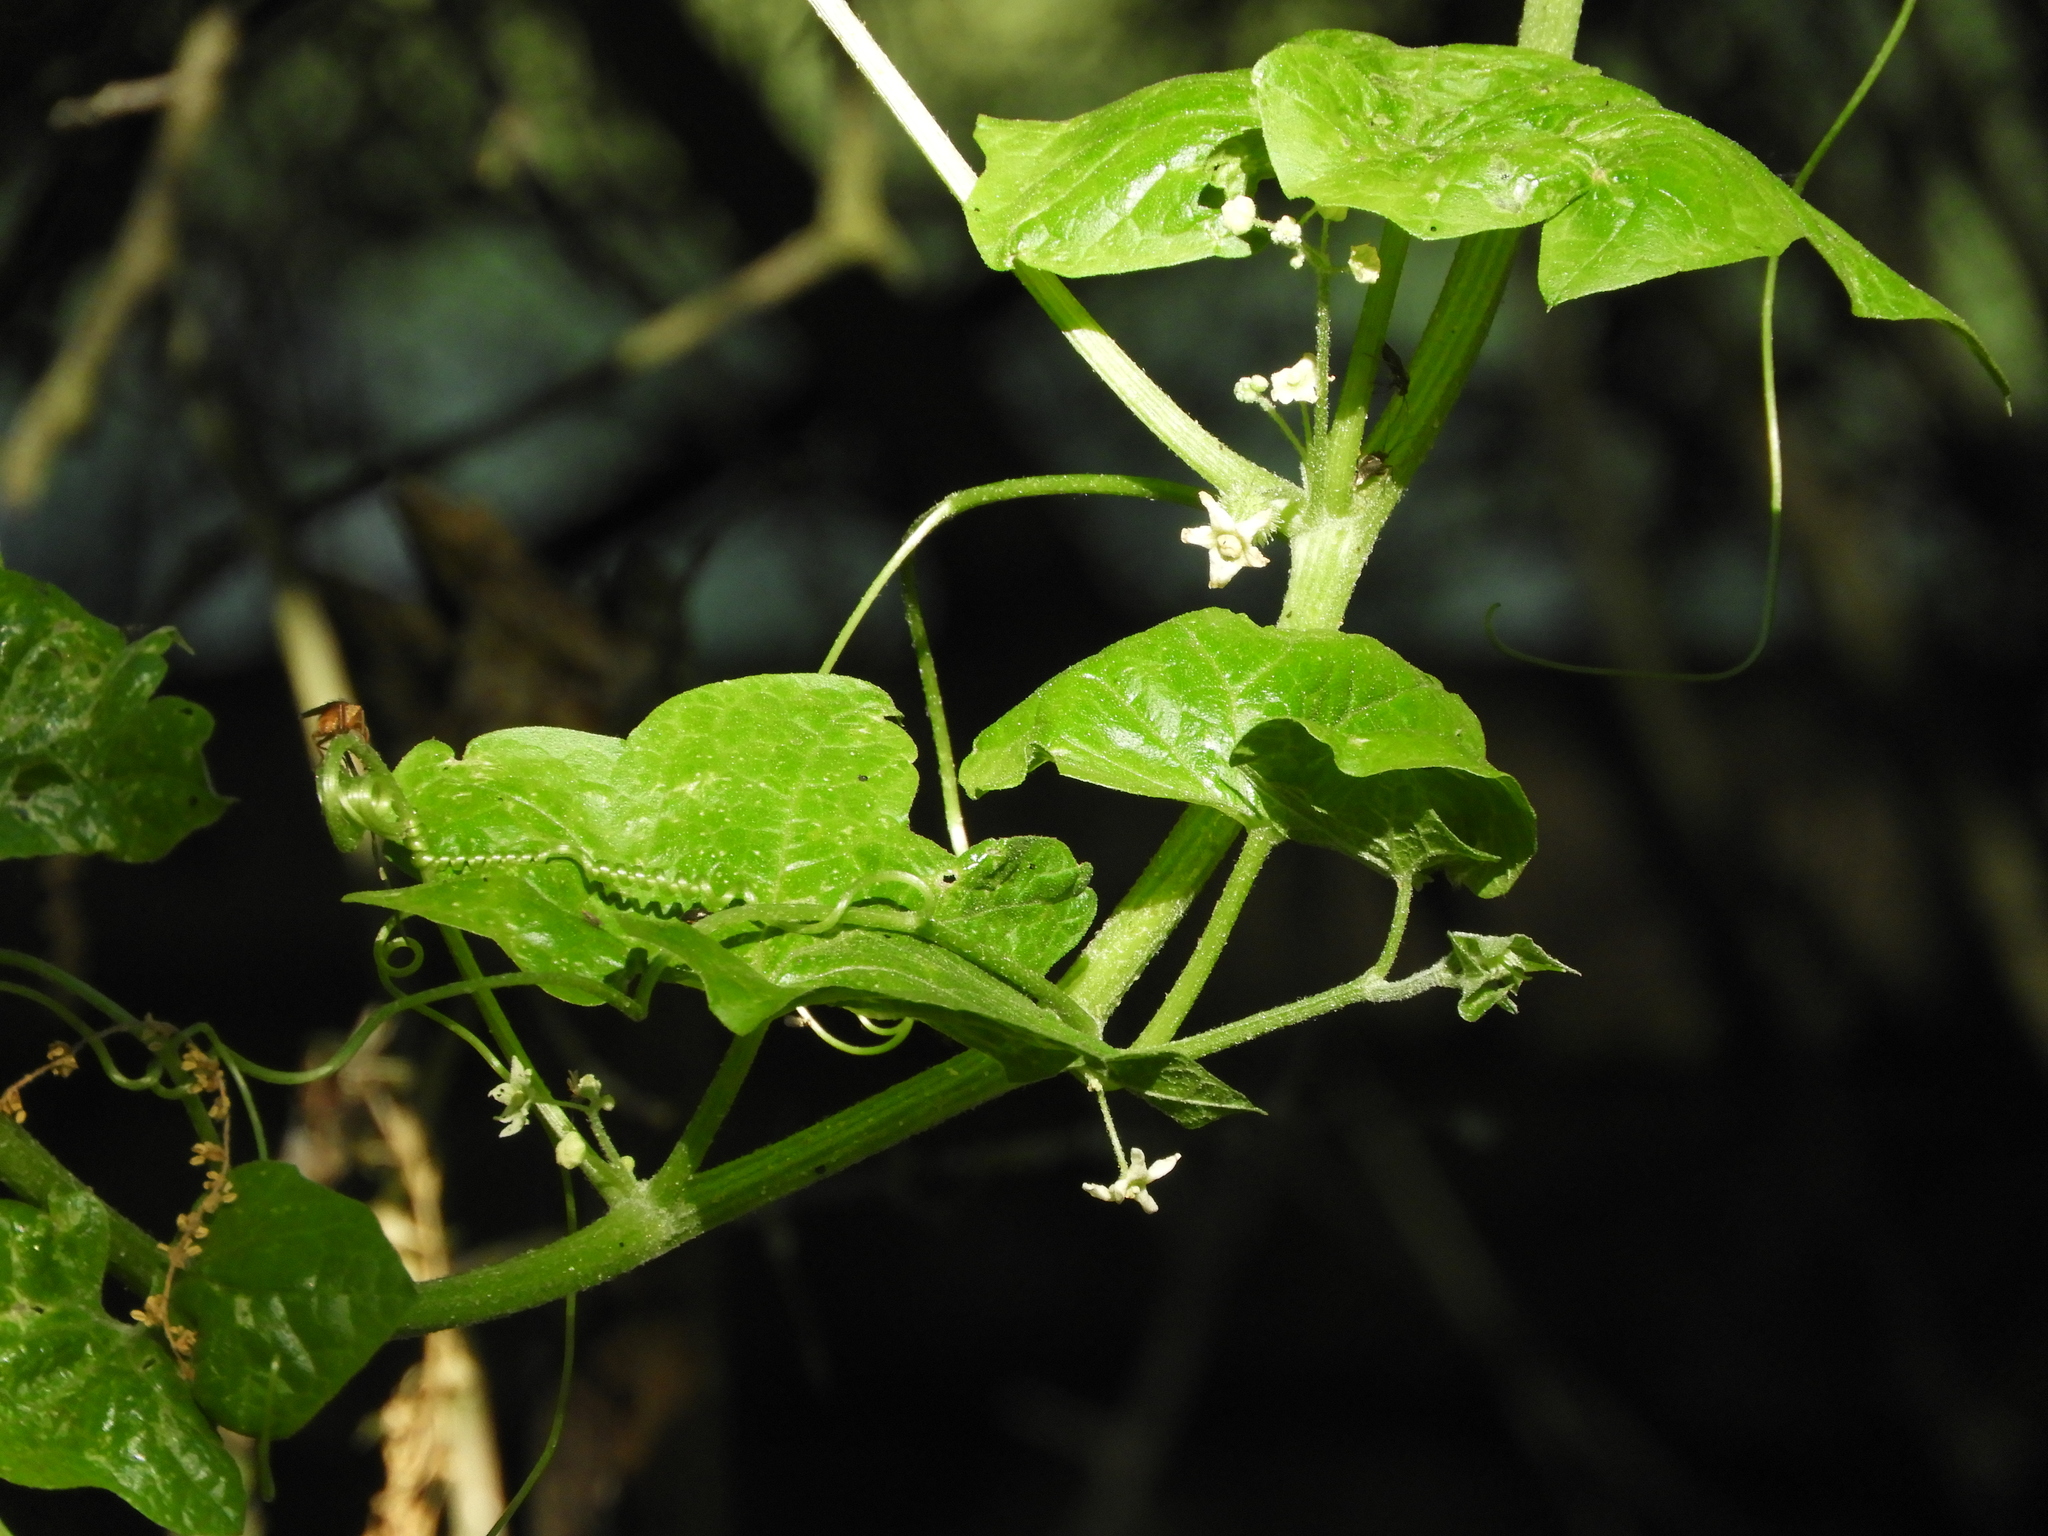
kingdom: Plantae
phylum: Tracheophyta
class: Magnoliopsida
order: Cucurbitales
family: Cucurbitaceae
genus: Marah
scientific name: Marah fabacea
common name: California manroot
